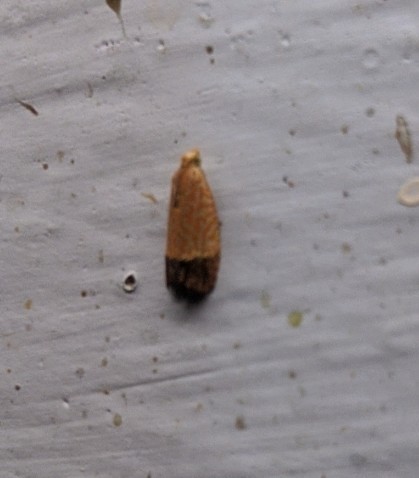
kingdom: Animalia
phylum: Arthropoda
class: Insecta
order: Lepidoptera
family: Tortricidae
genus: Loboschiza
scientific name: Loboschiza koenigiana
